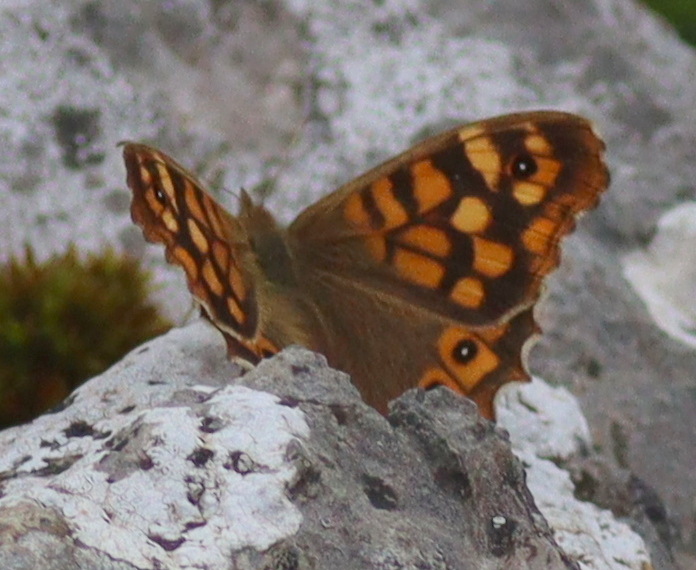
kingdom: Animalia
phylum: Arthropoda
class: Insecta
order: Lepidoptera
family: Nymphalidae
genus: Pararge
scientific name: Pararge aegeria
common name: Speckled wood
